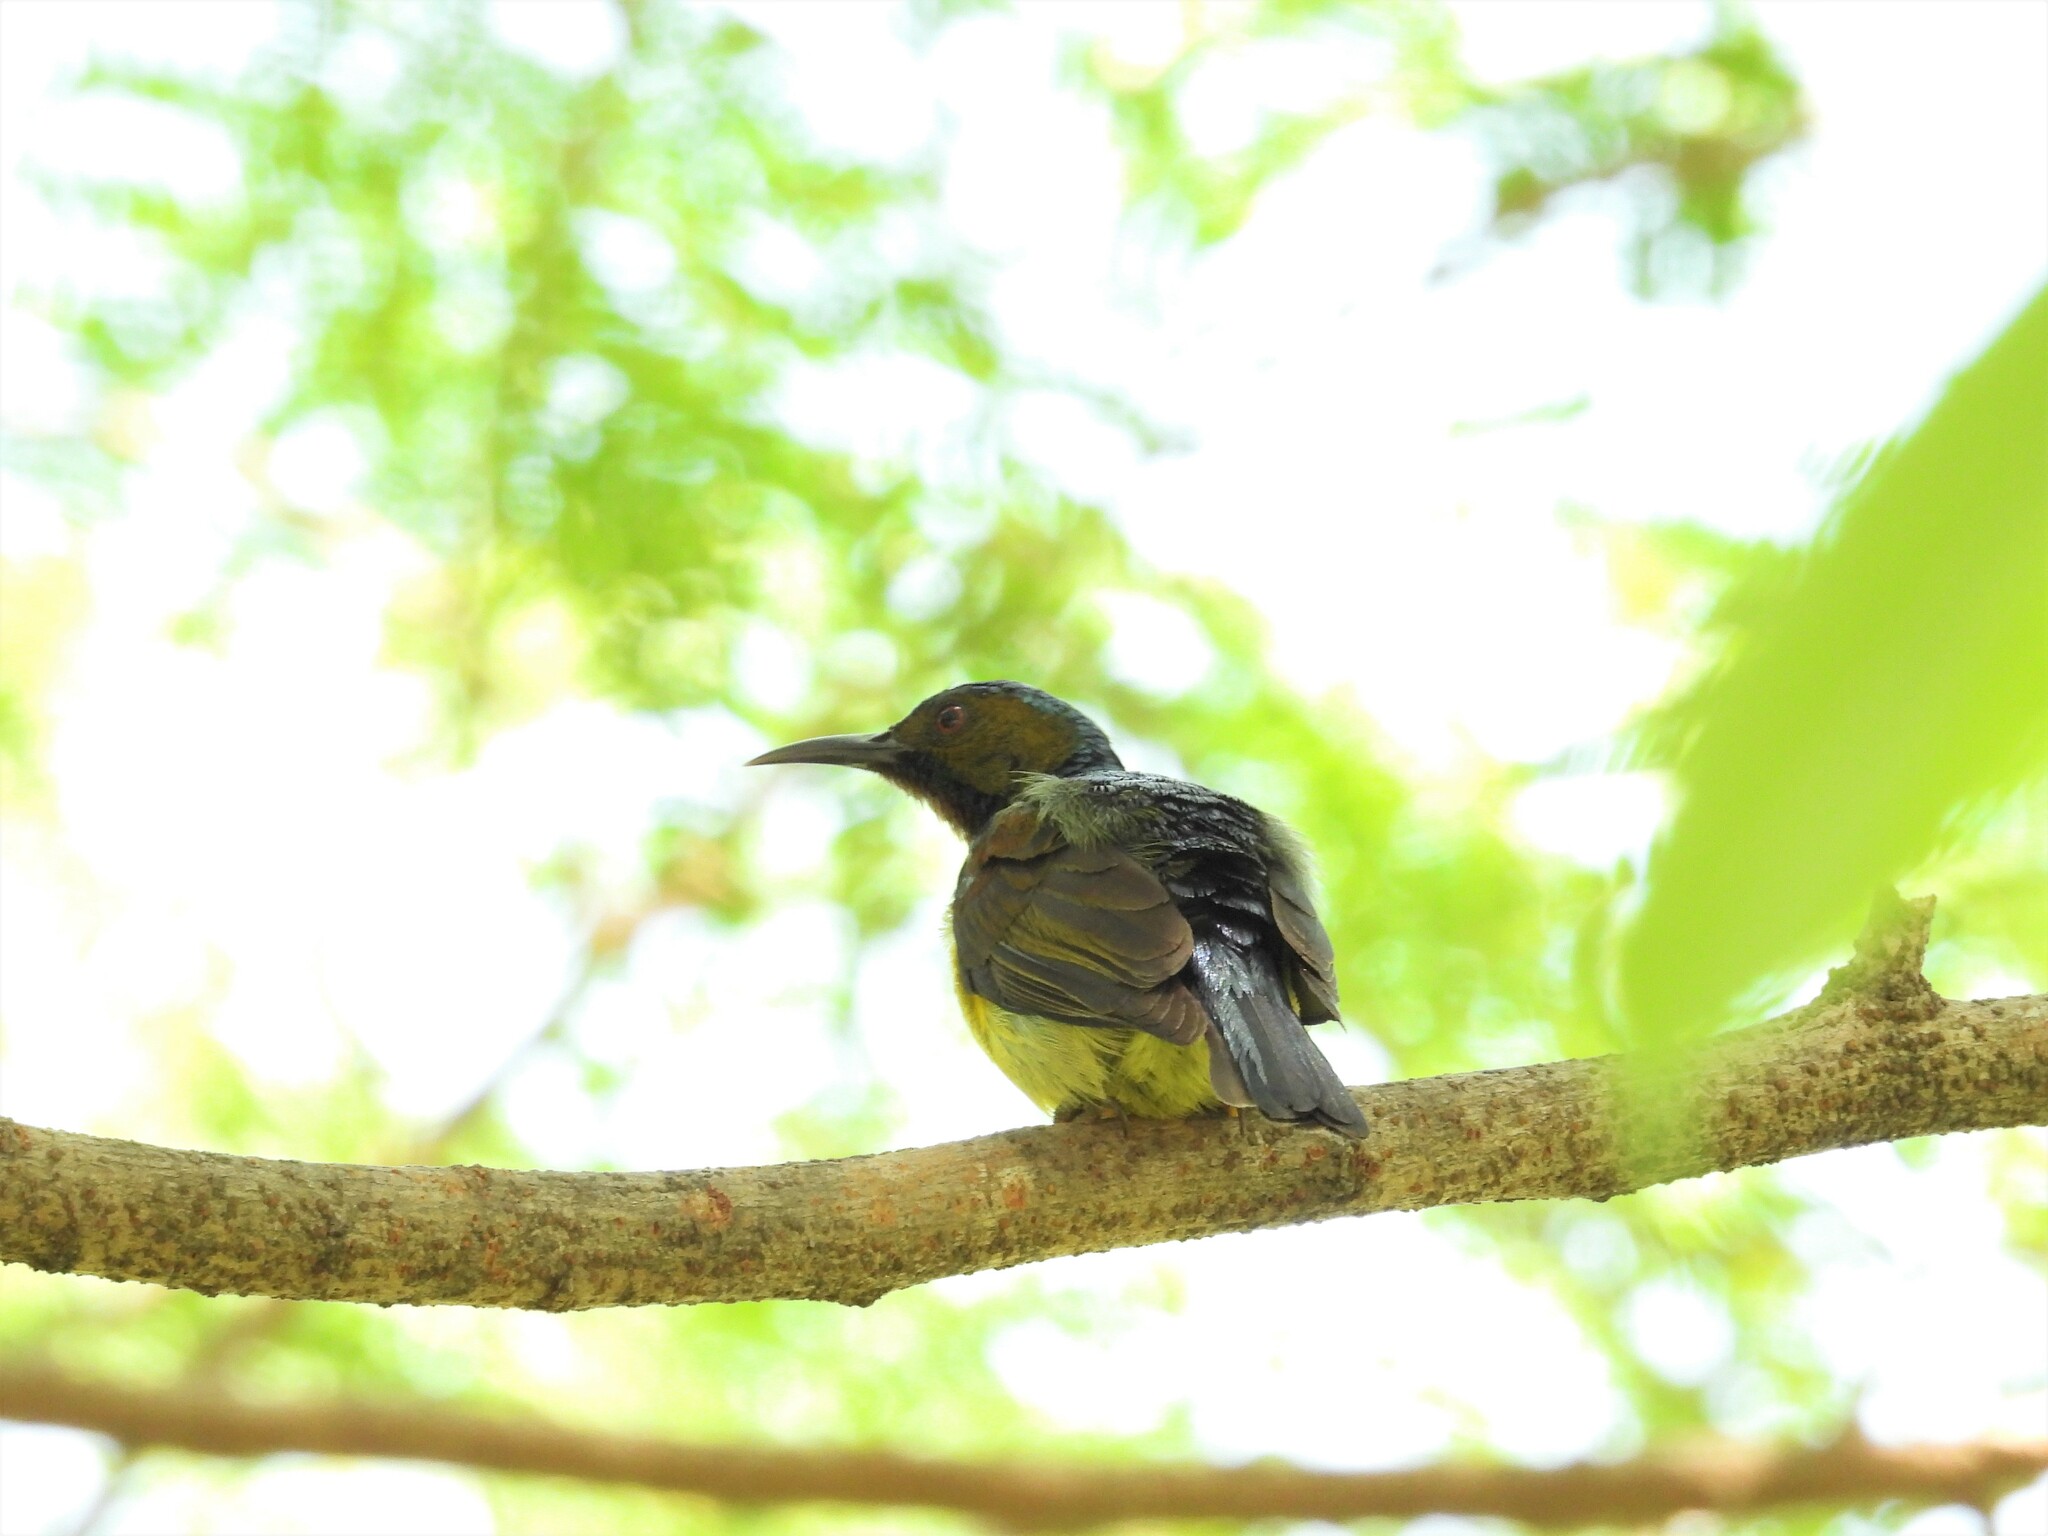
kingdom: Animalia
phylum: Chordata
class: Aves
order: Passeriformes
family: Nectariniidae
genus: Anthreptes
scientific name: Anthreptes malacensis
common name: Brown-throated sunbird
